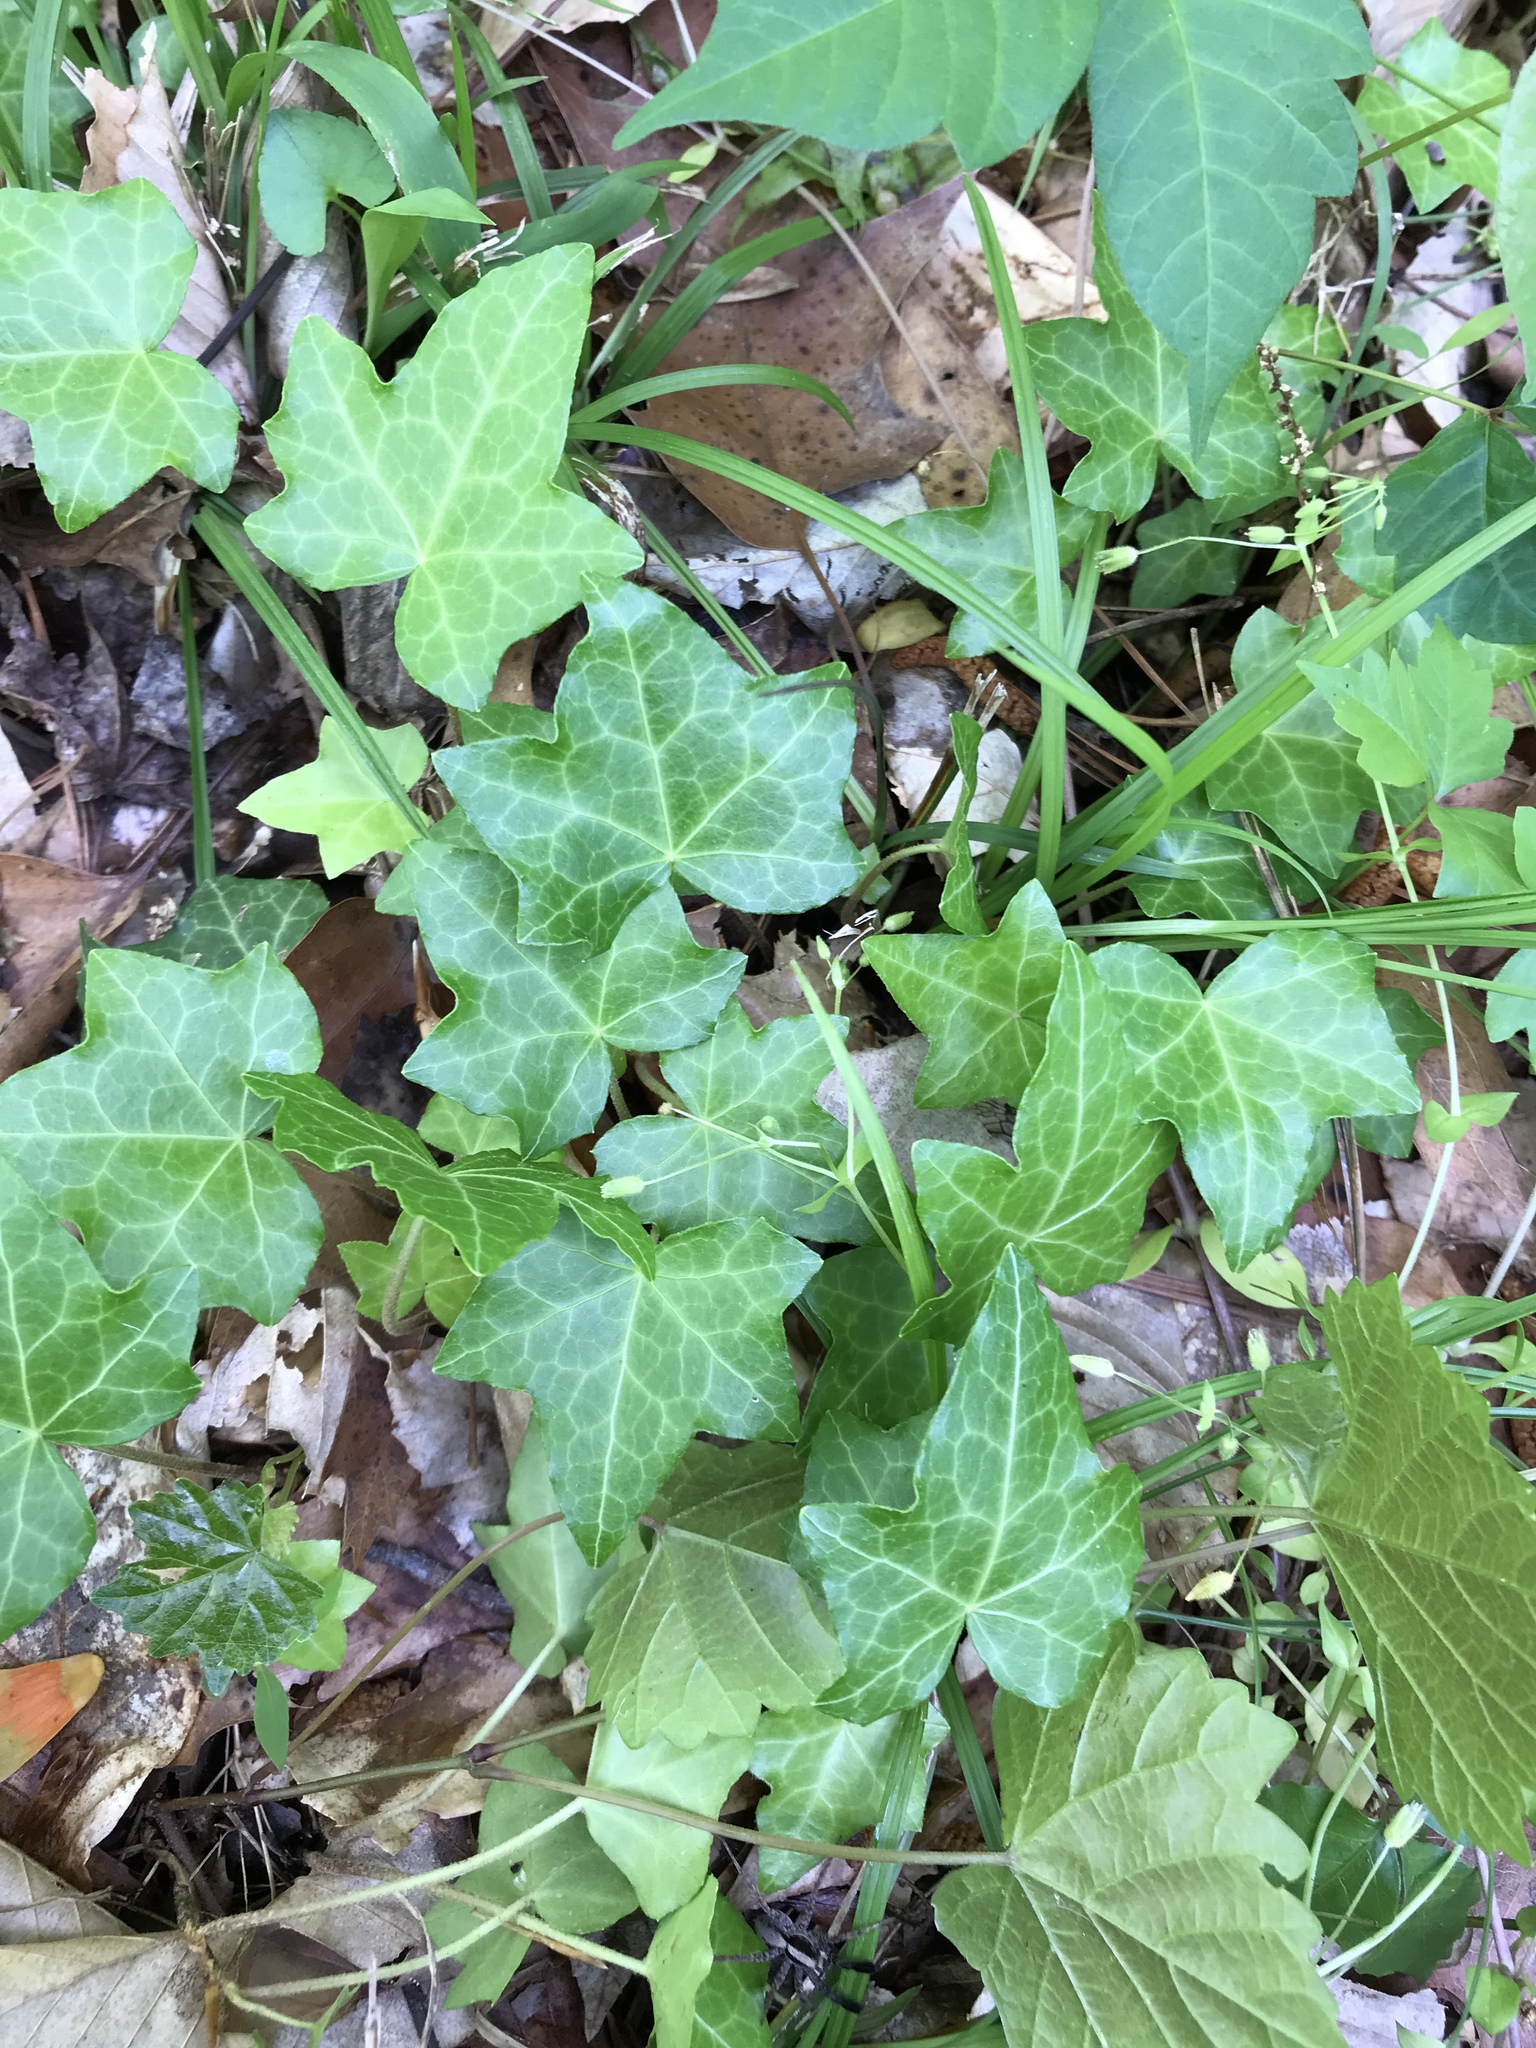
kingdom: Plantae
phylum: Tracheophyta
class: Magnoliopsida
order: Apiales
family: Araliaceae
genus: Hedera
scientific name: Hedera helix
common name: Ivy
